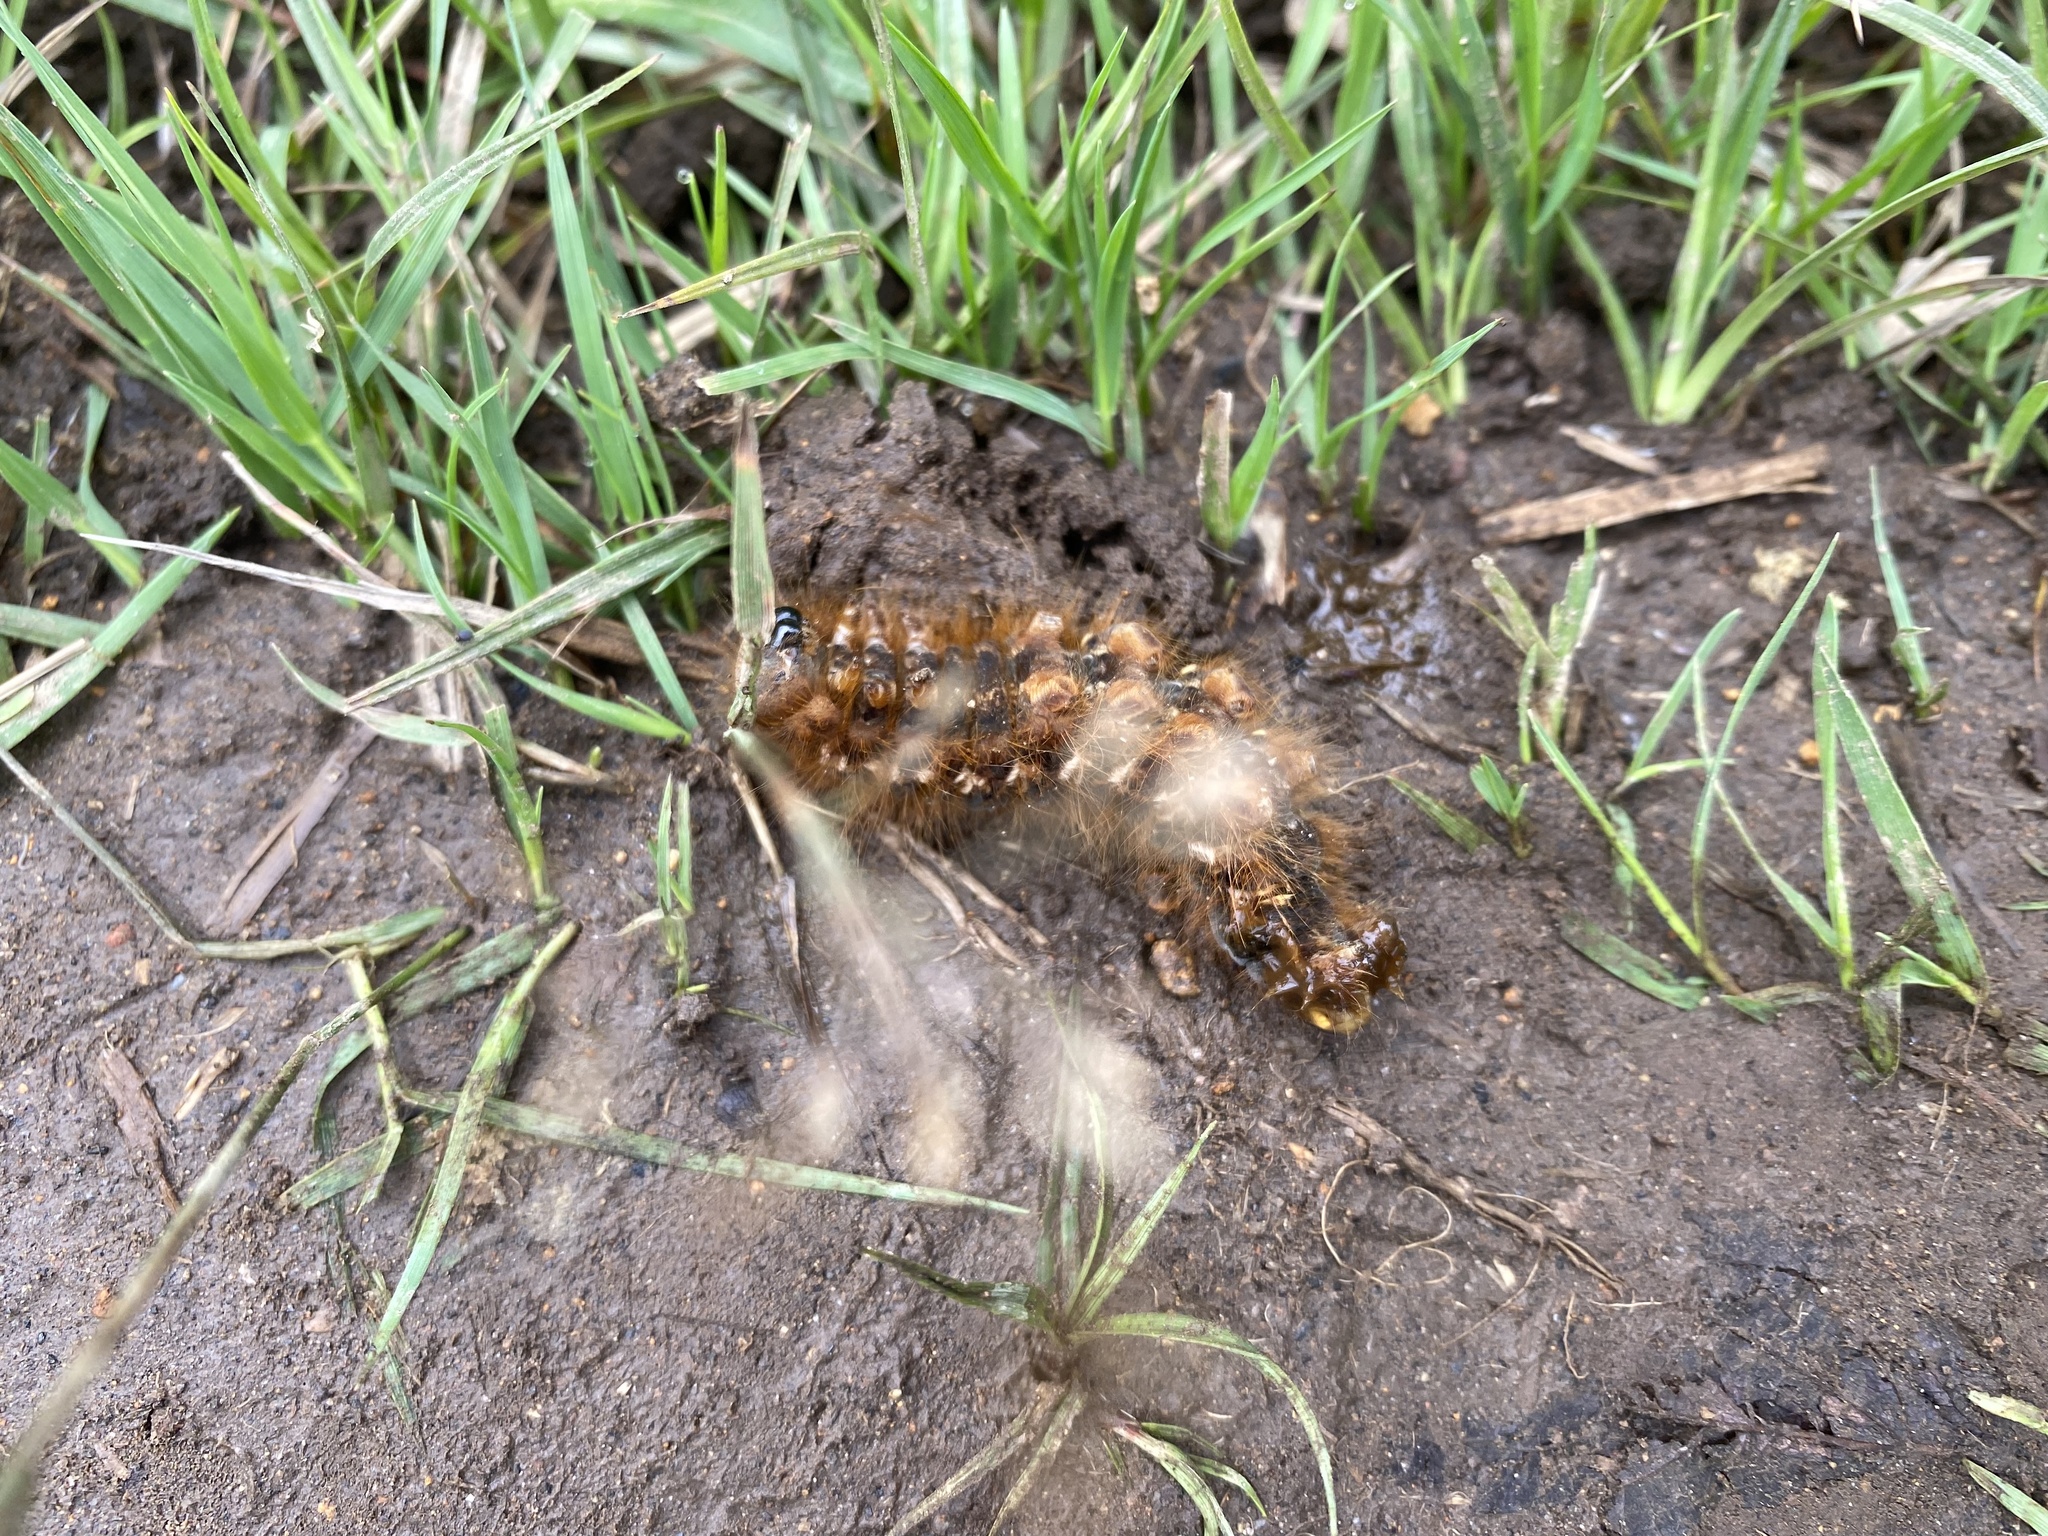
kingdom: Animalia
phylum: Arthropoda
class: Insecta
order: Lepidoptera
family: Lasiocampidae
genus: Euthrix
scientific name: Euthrix potatoria
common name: Drinker
